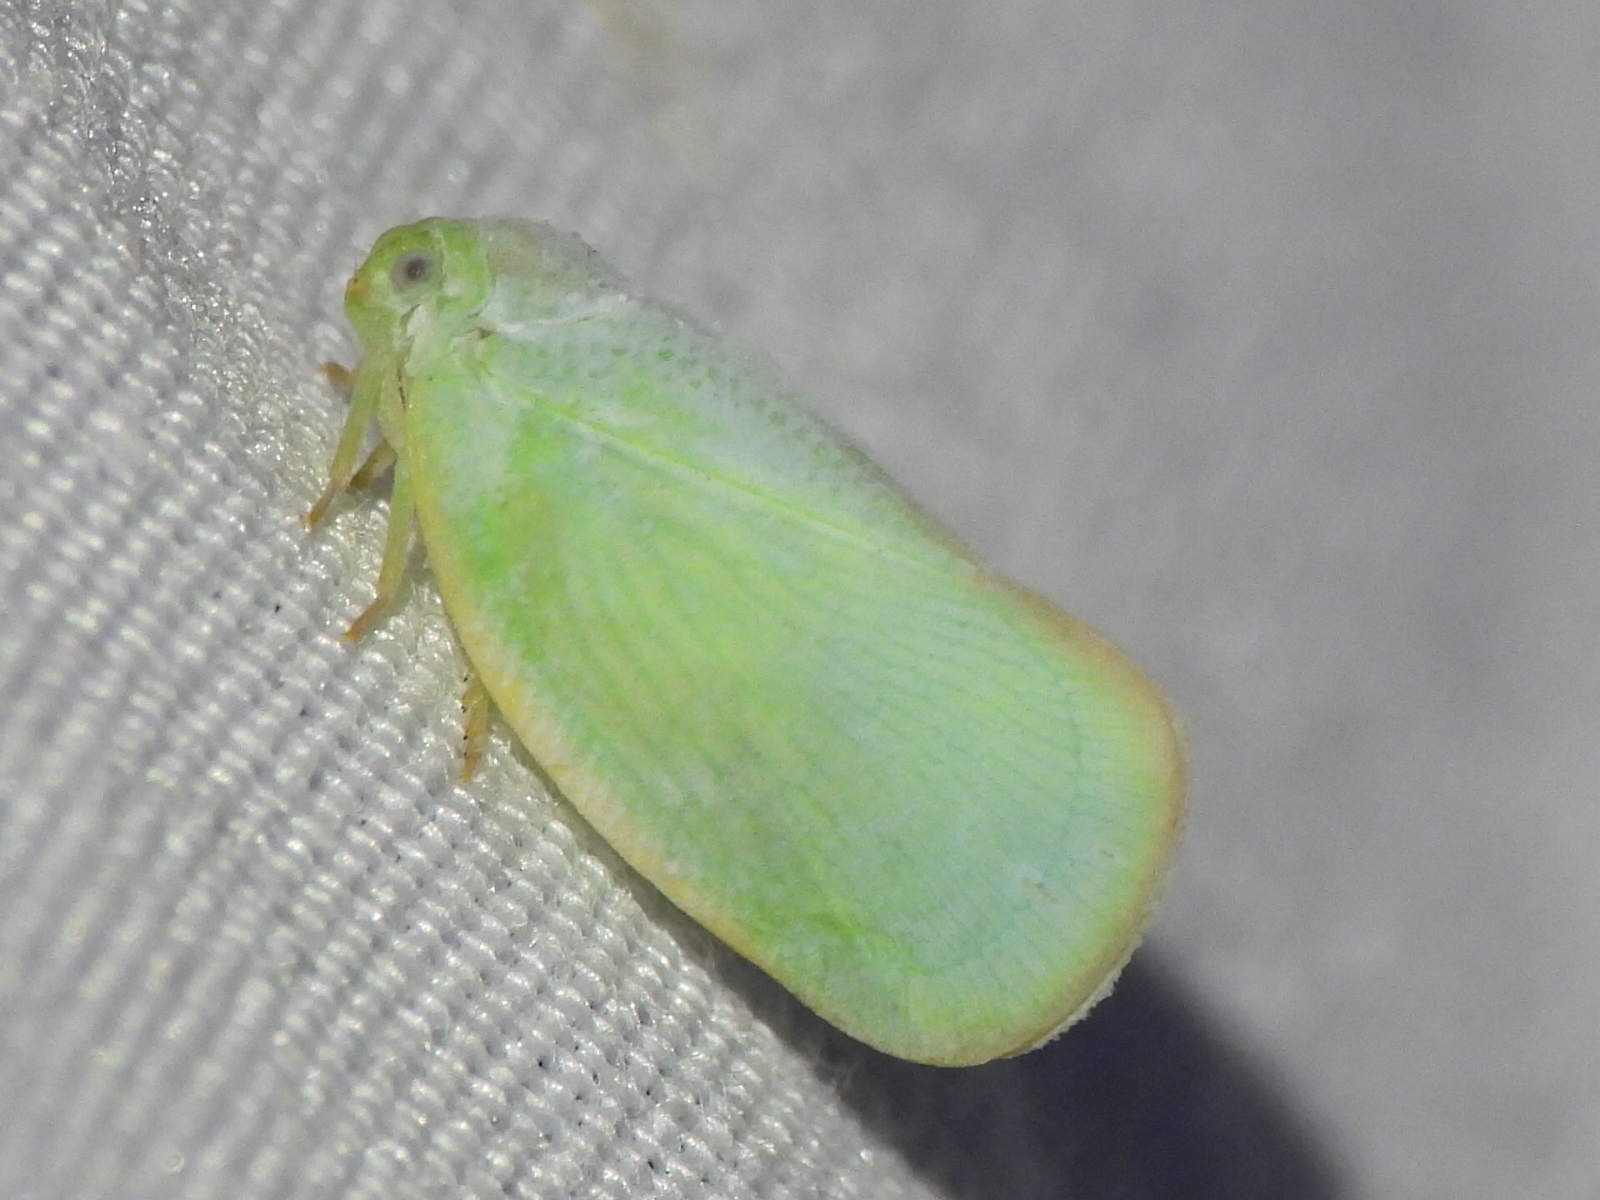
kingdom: Animalia
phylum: Arthropoda
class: Insecta
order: Hemiptera
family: Flatidae
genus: Ormenoides
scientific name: Ormenoides venusta
